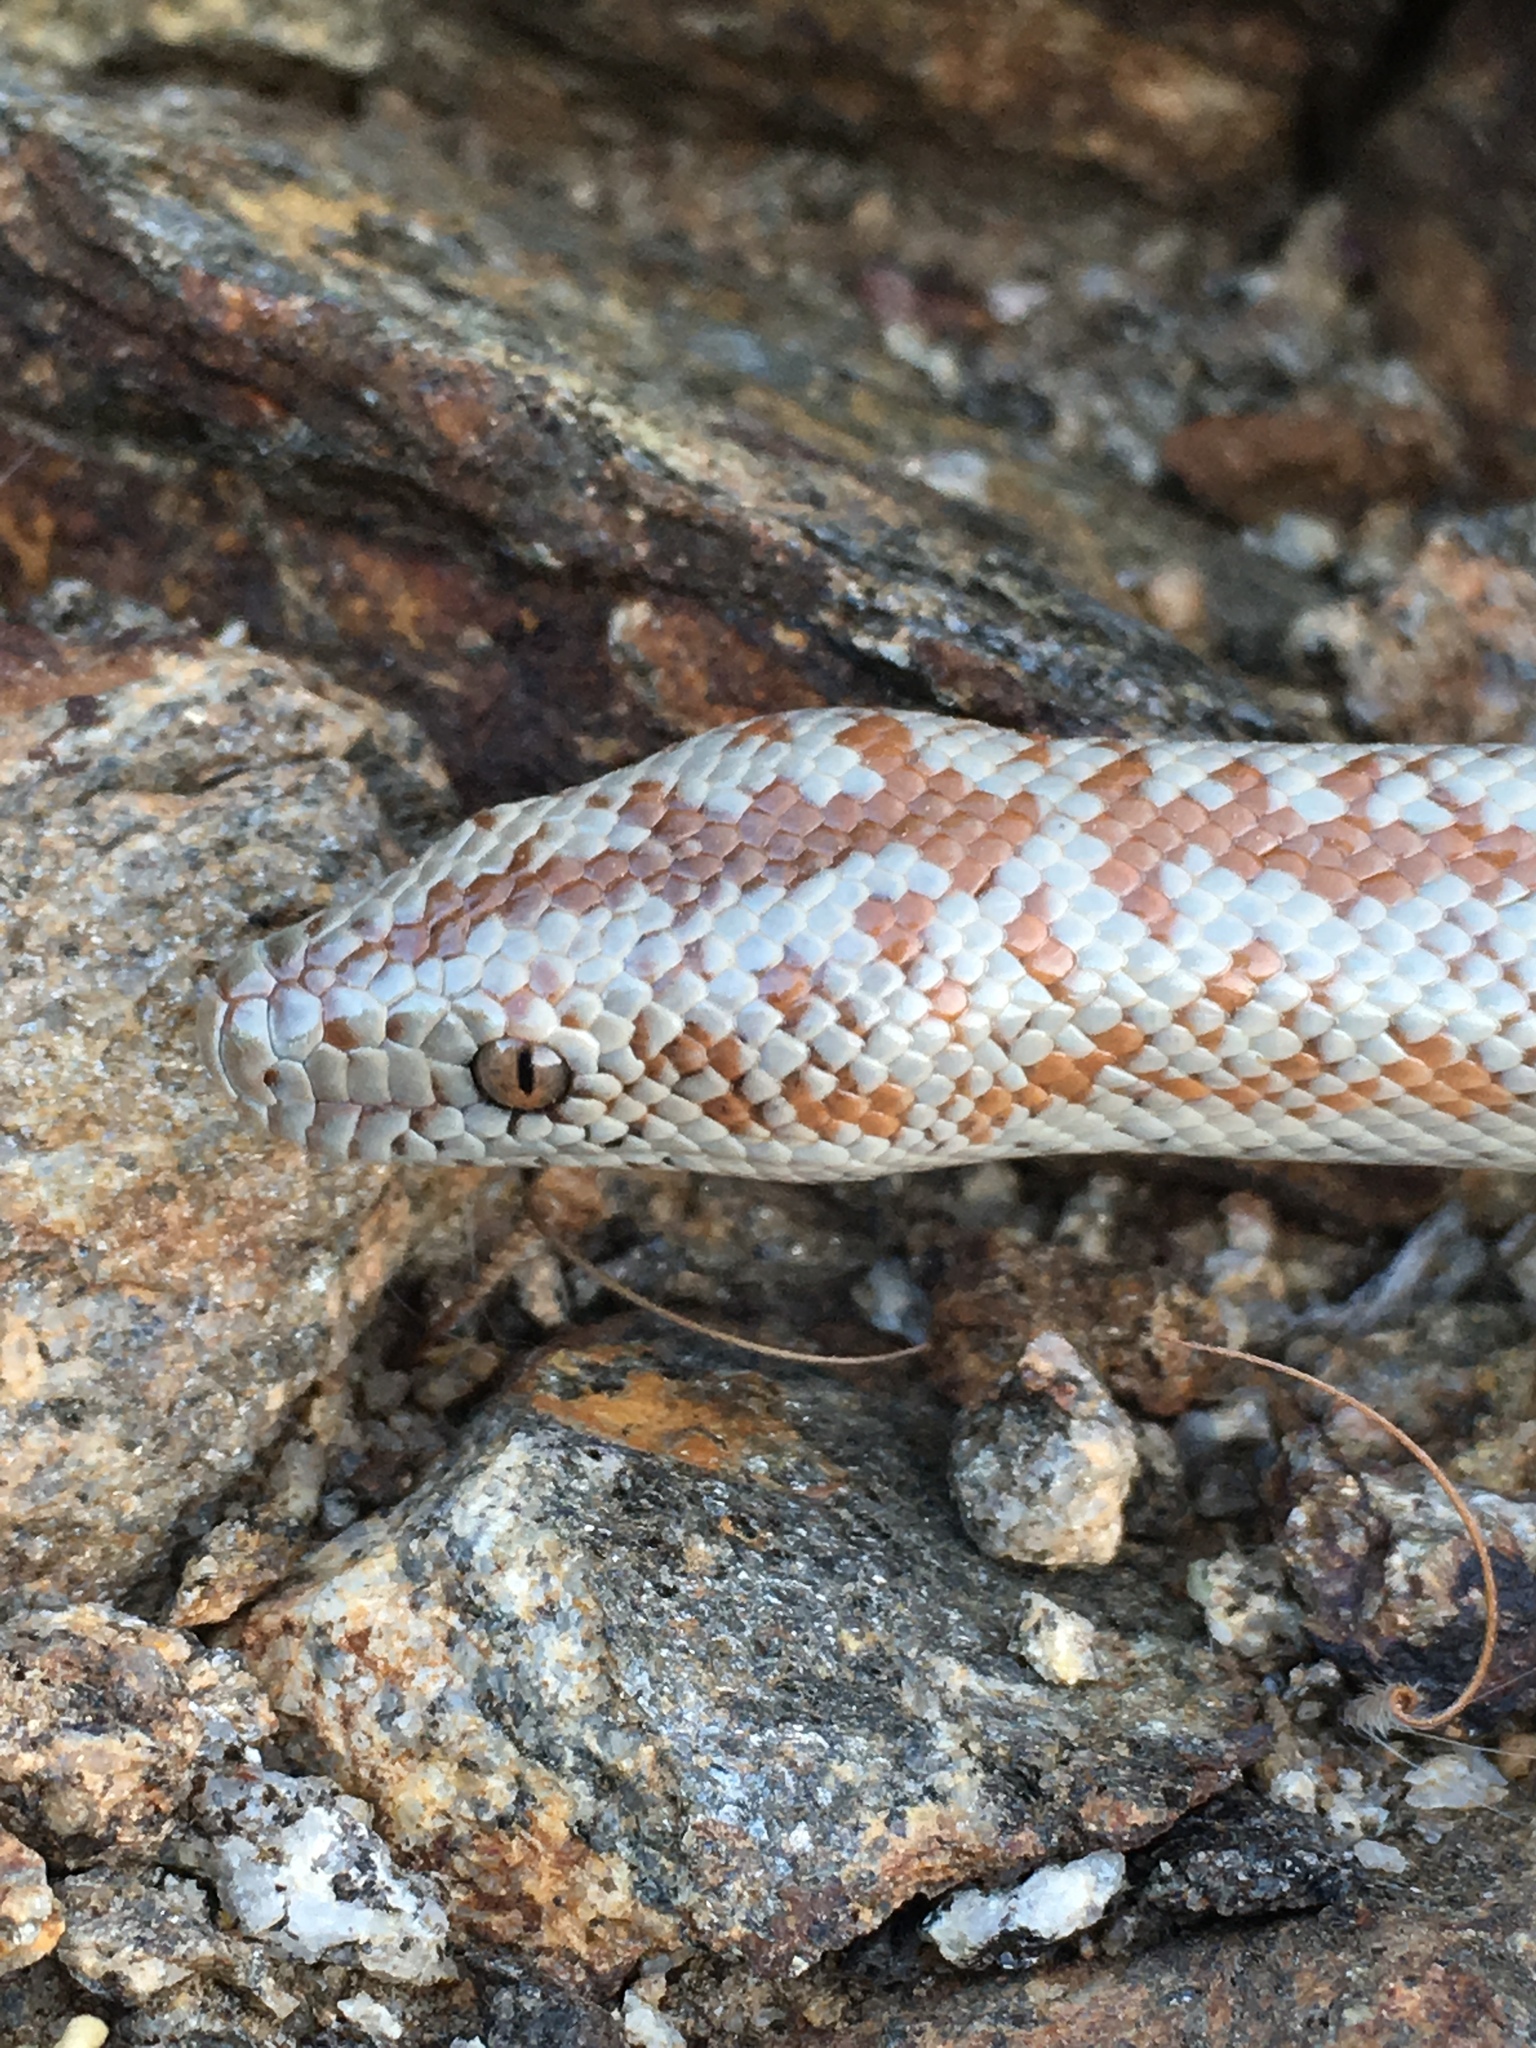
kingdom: Animalia
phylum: Chordata
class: Squamata
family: Boidae
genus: Lichanura
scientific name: Lichanura orcutti
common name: Northern three-lined boa
